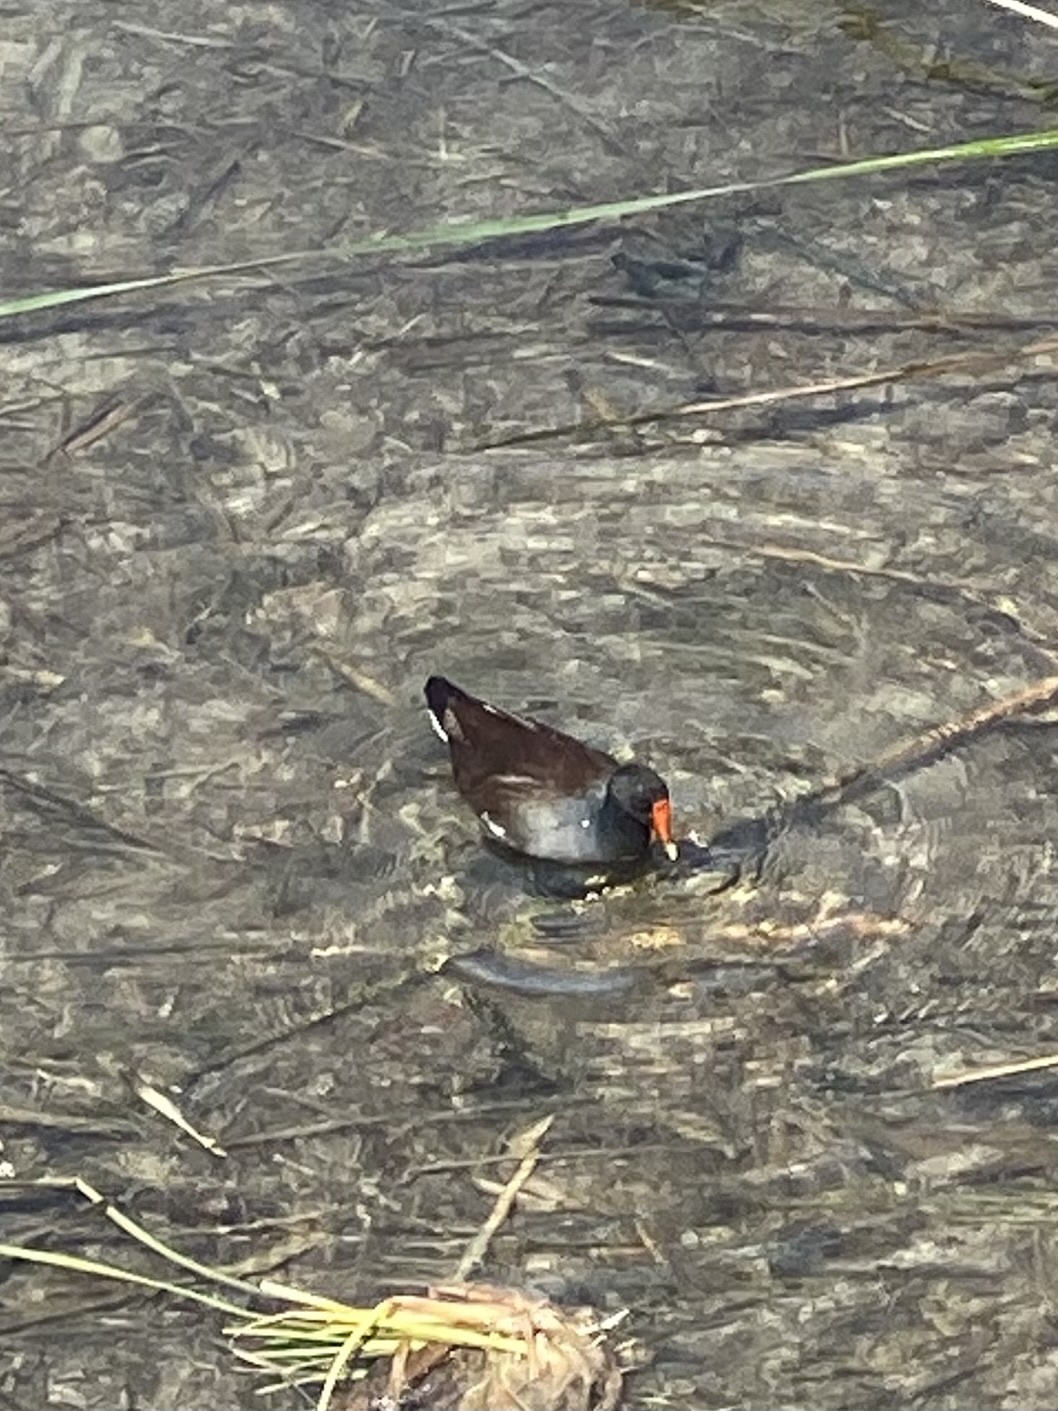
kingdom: Animalia
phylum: Chordata
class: Aves
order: Gruiformes
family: Rallidae
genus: Gallinula
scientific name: Gallinula chloropus
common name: Common moorhen
